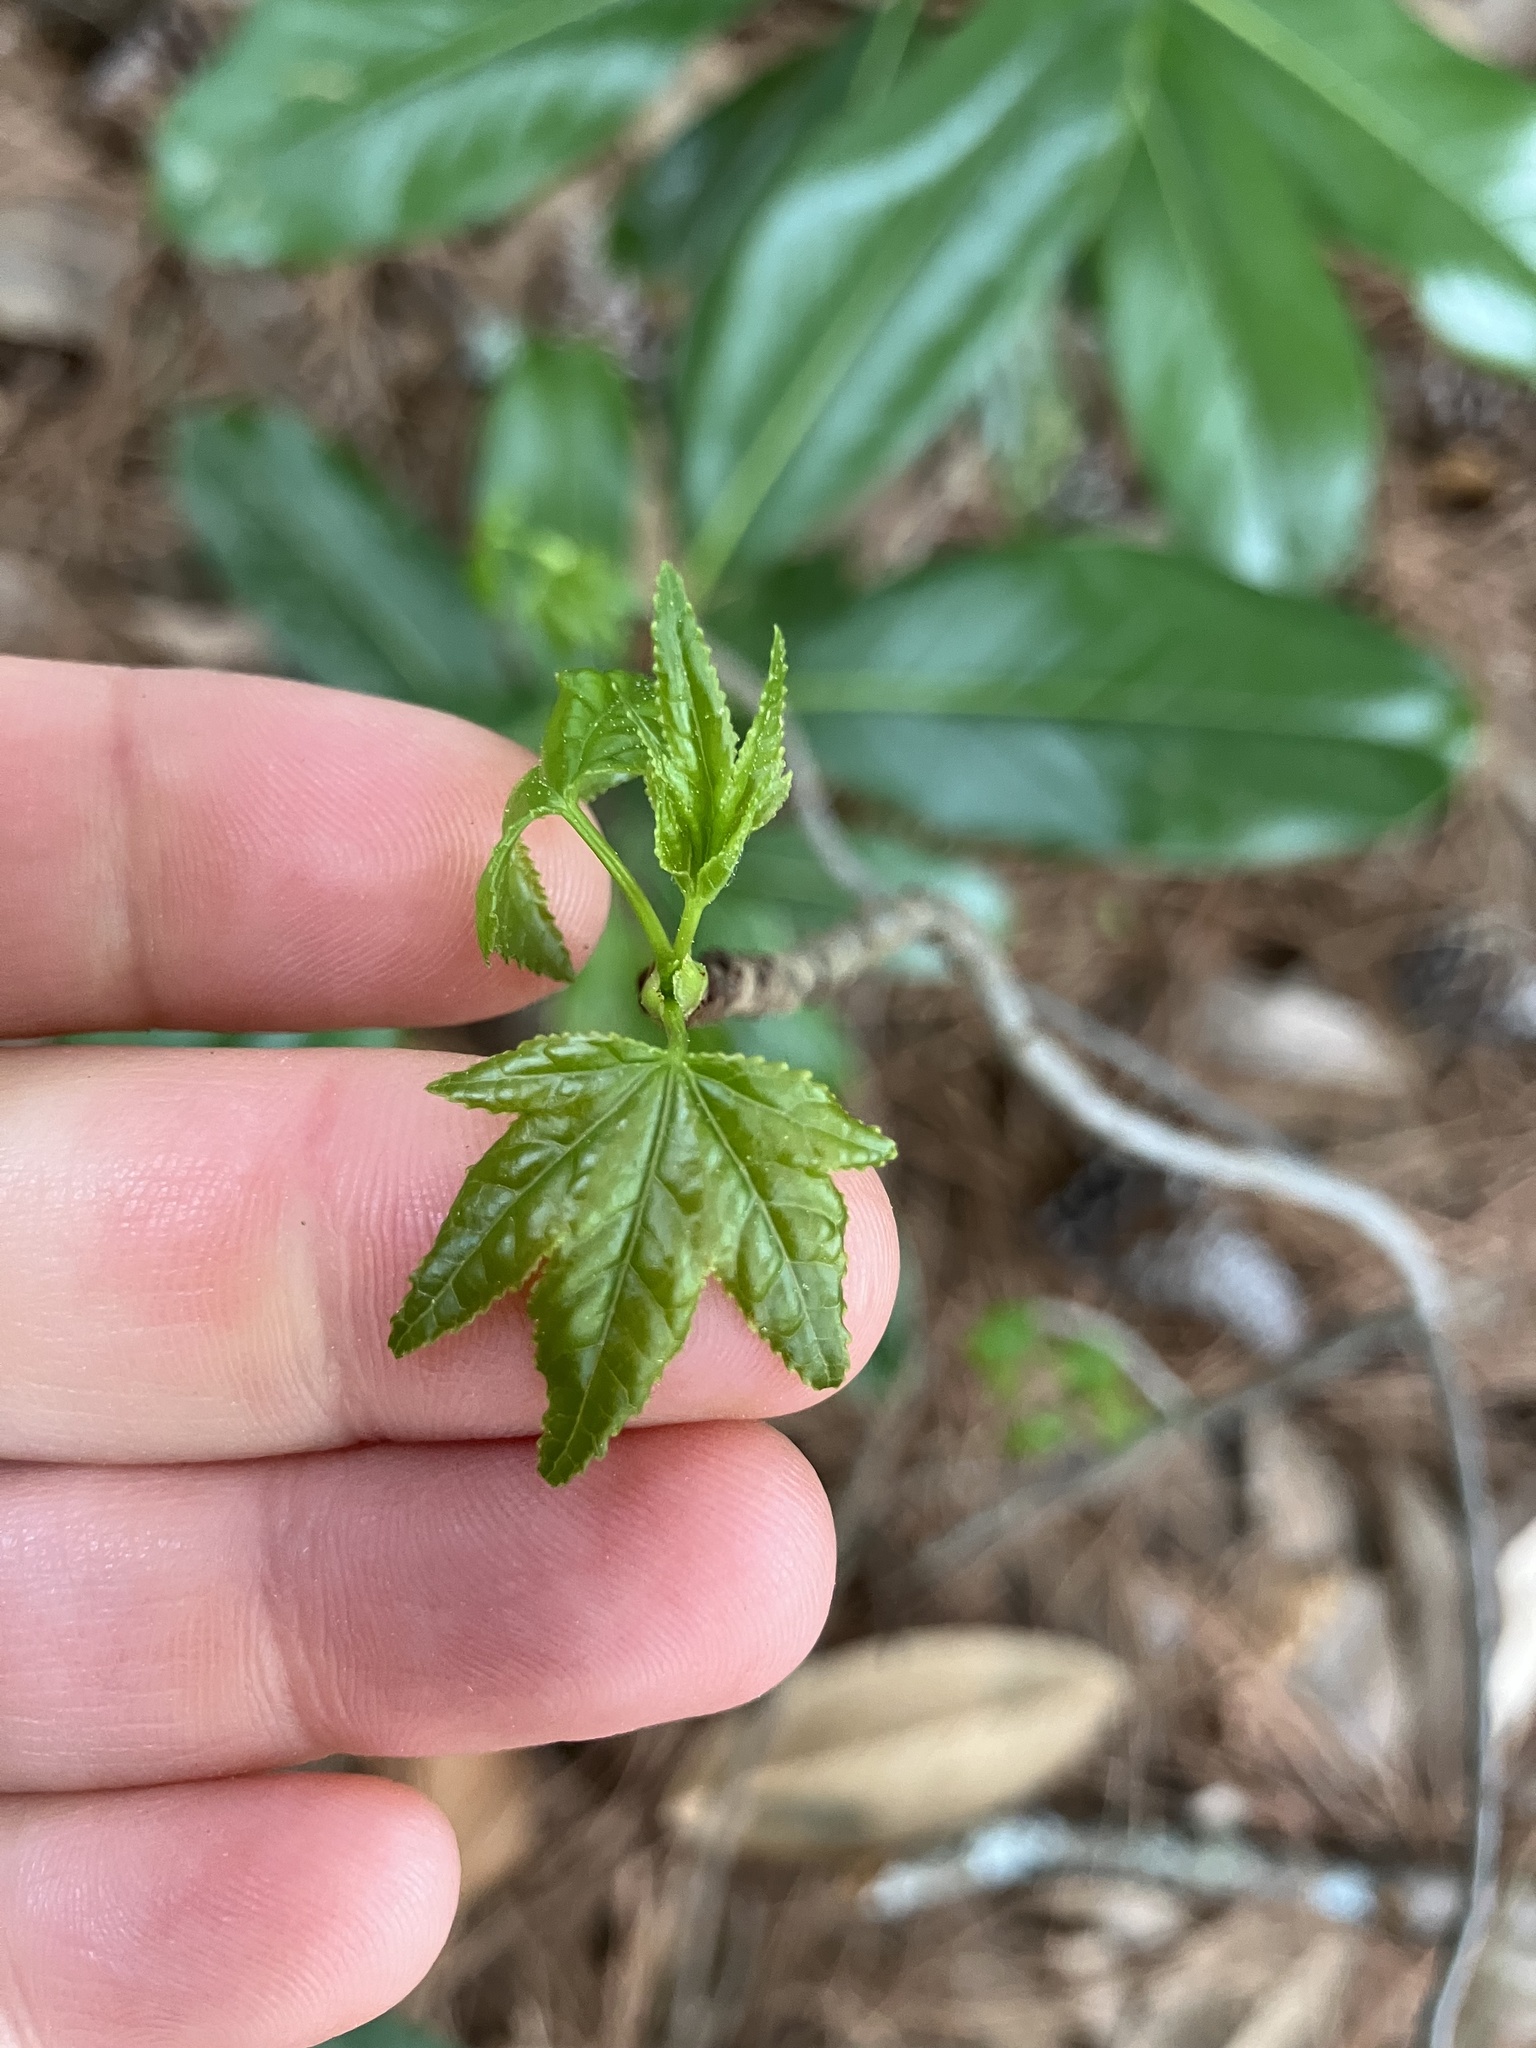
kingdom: Plantae
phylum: Tracheophyta
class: Magnoliopsida
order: Saxifragales
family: Altingiaceae
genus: Liquidambar
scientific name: Liquidambar styraciflua
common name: Sweet gum
